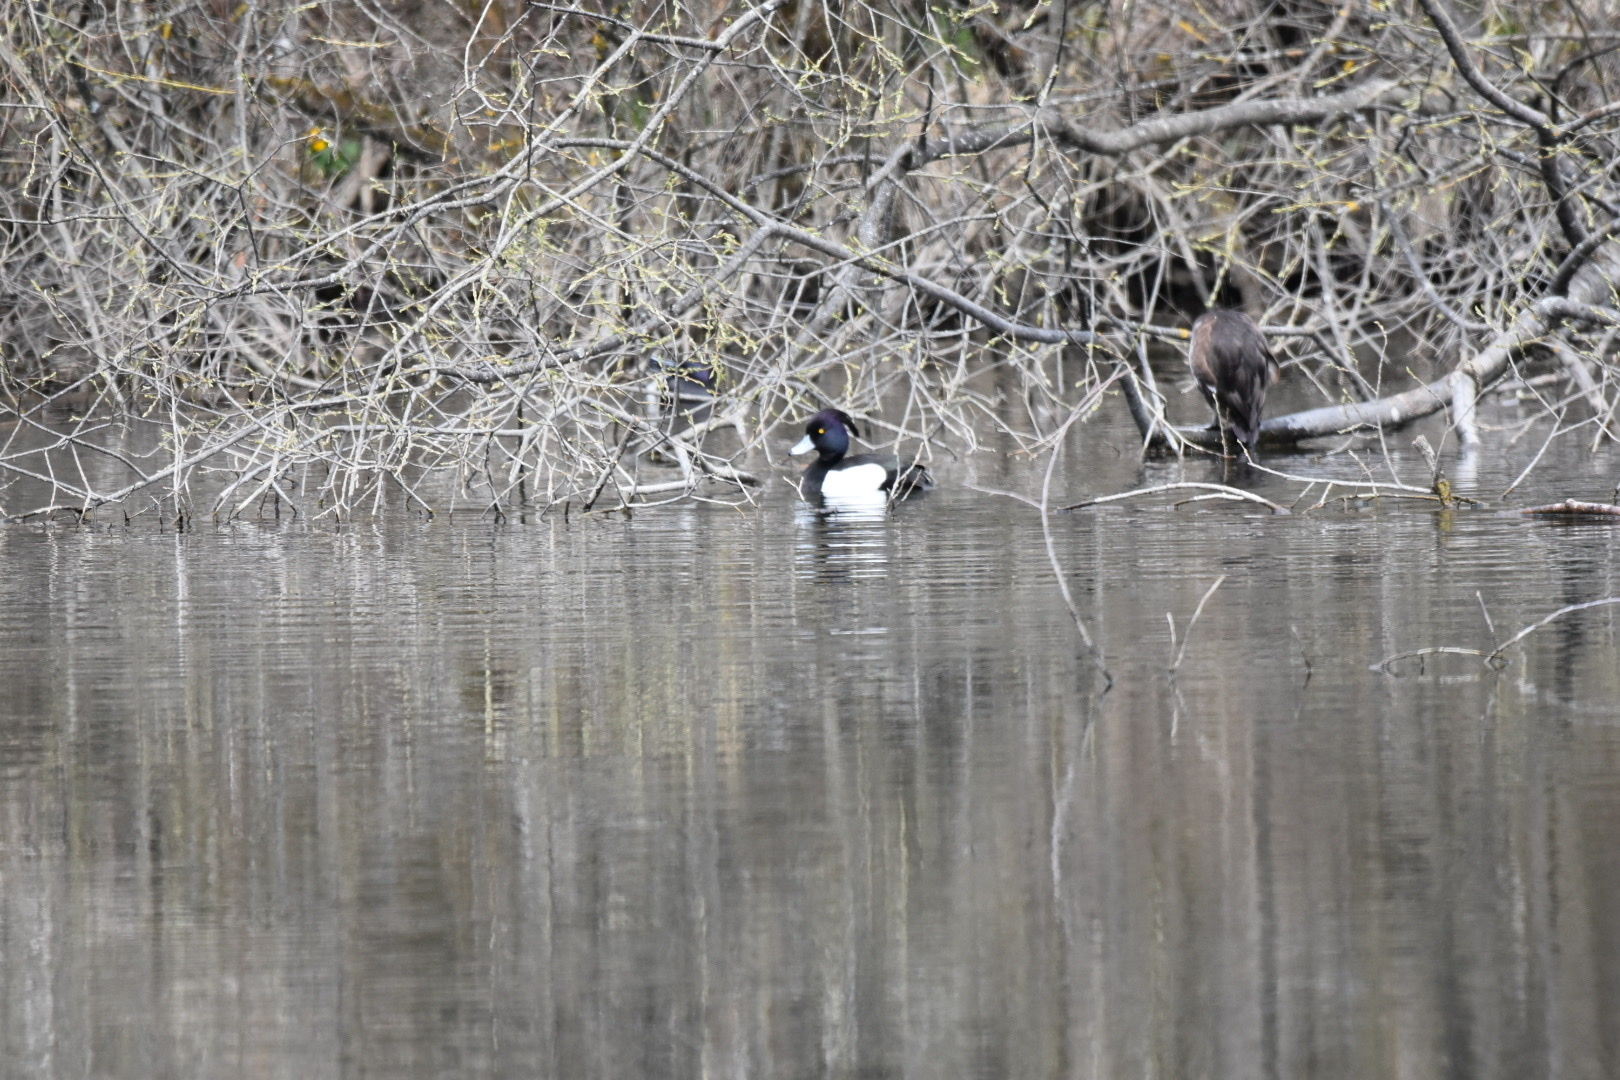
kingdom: Animalia
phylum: Chordata
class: Aves
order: Anseriformes
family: Anatidae
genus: Aythya
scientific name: Aythya fuligula
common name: Tufted duck
